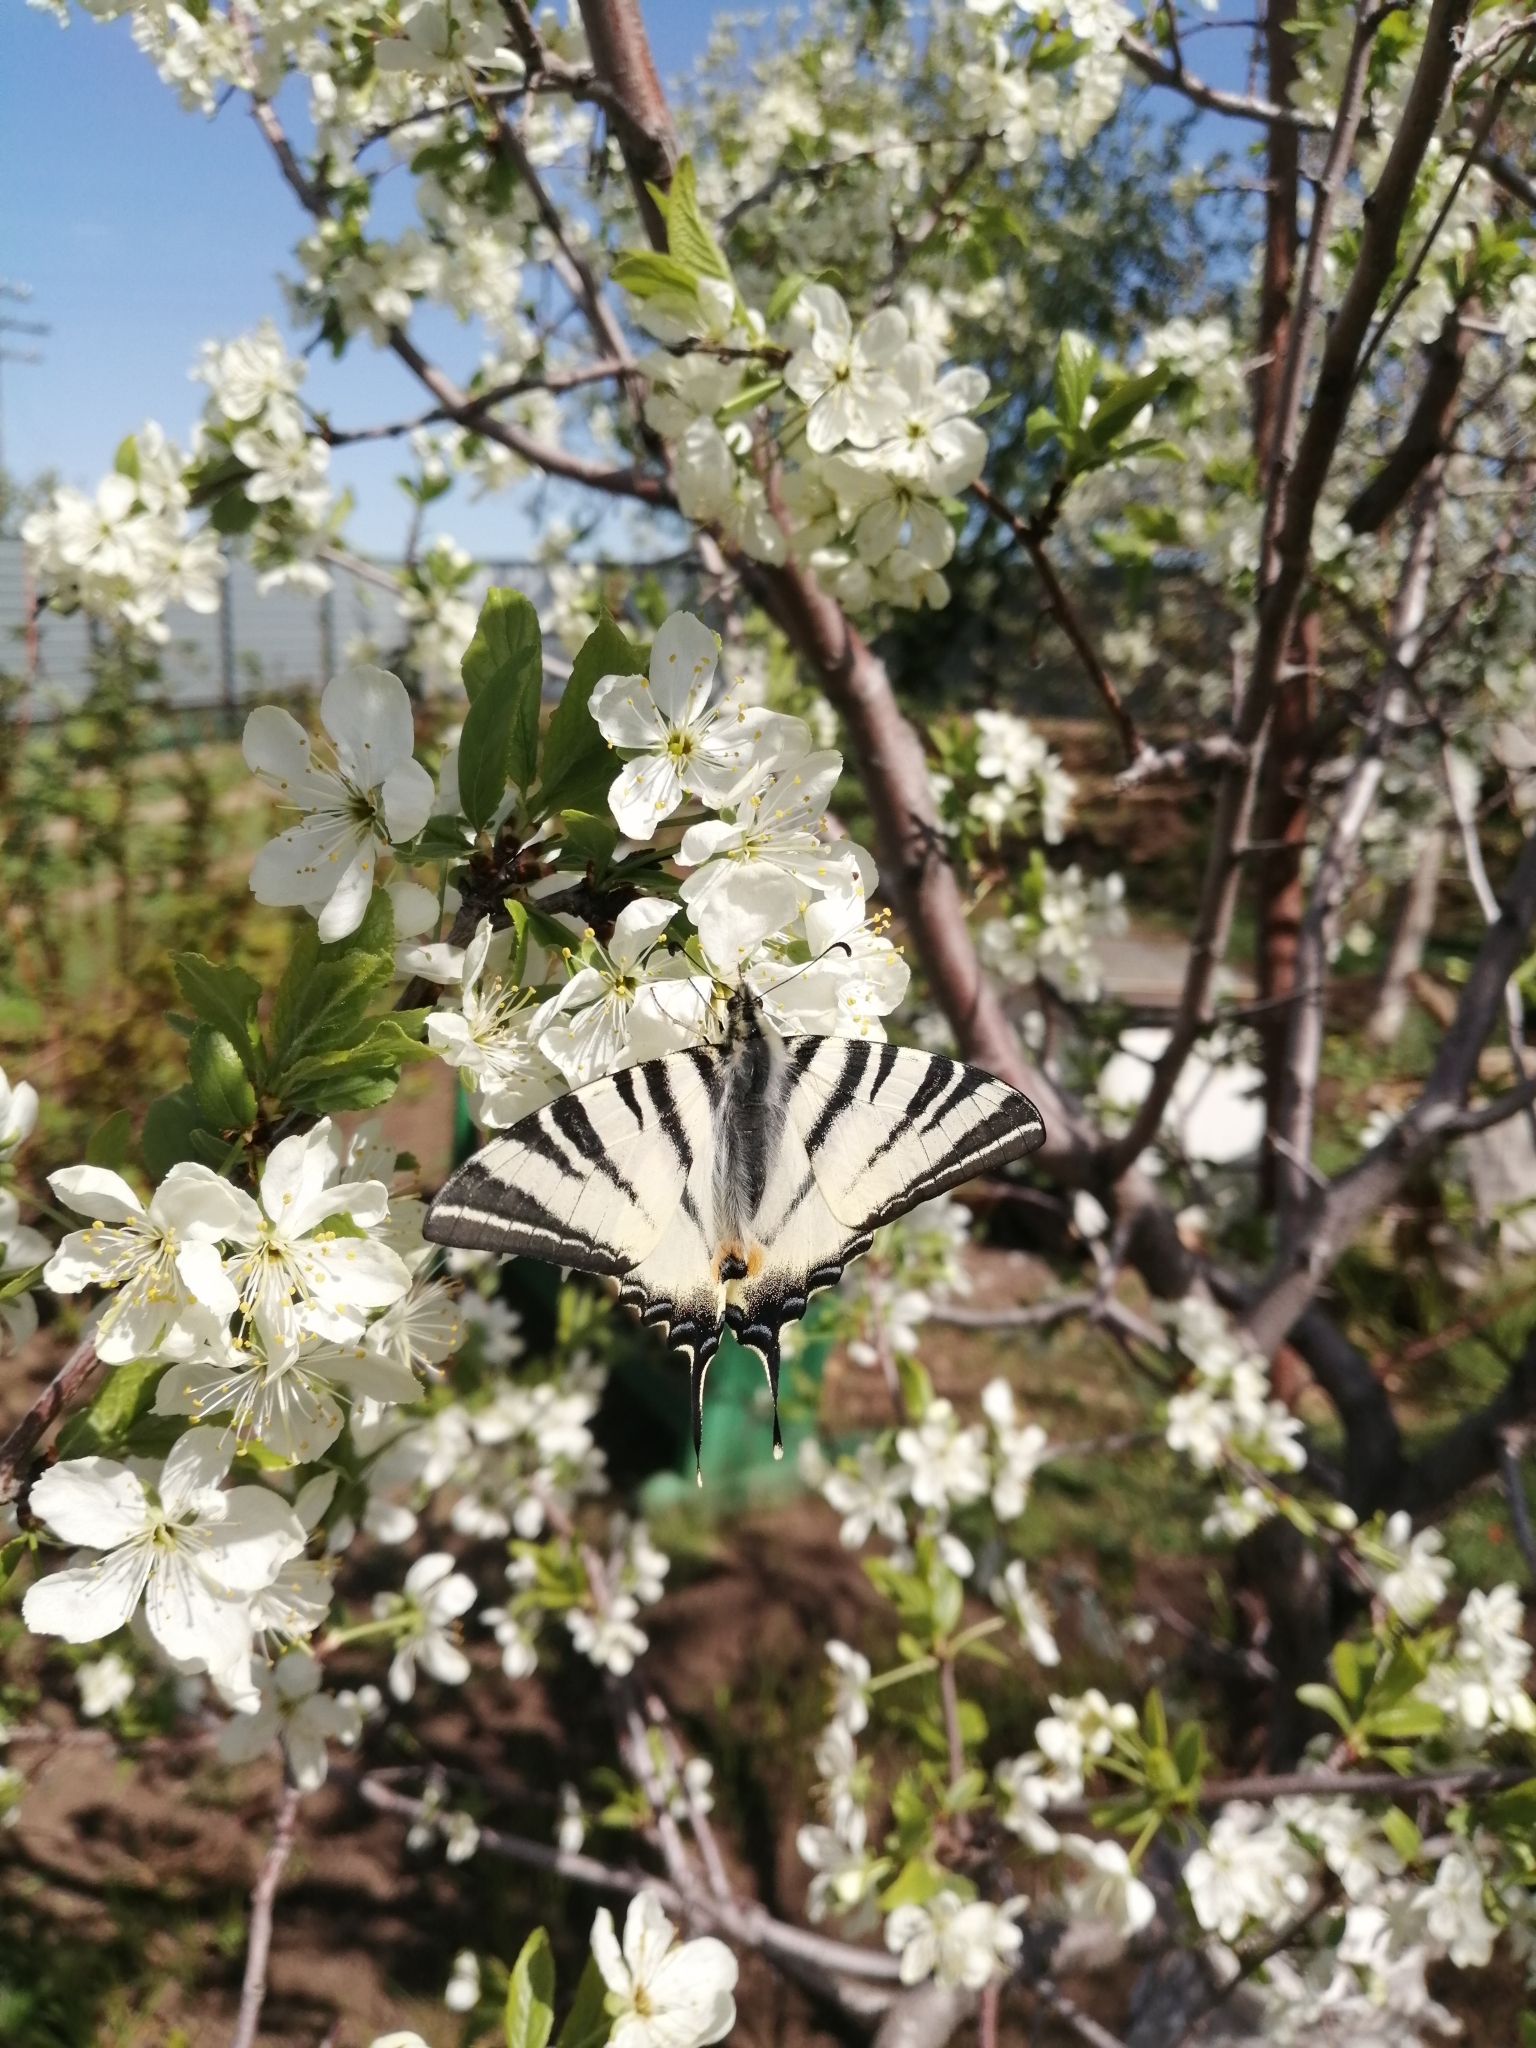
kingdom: Animalia
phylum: Arthropoda
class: Insecta
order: Lepidoptera
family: Papilionidae
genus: Iphiclides
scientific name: Iphiclides podalirius
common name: Scarce swallowtail
